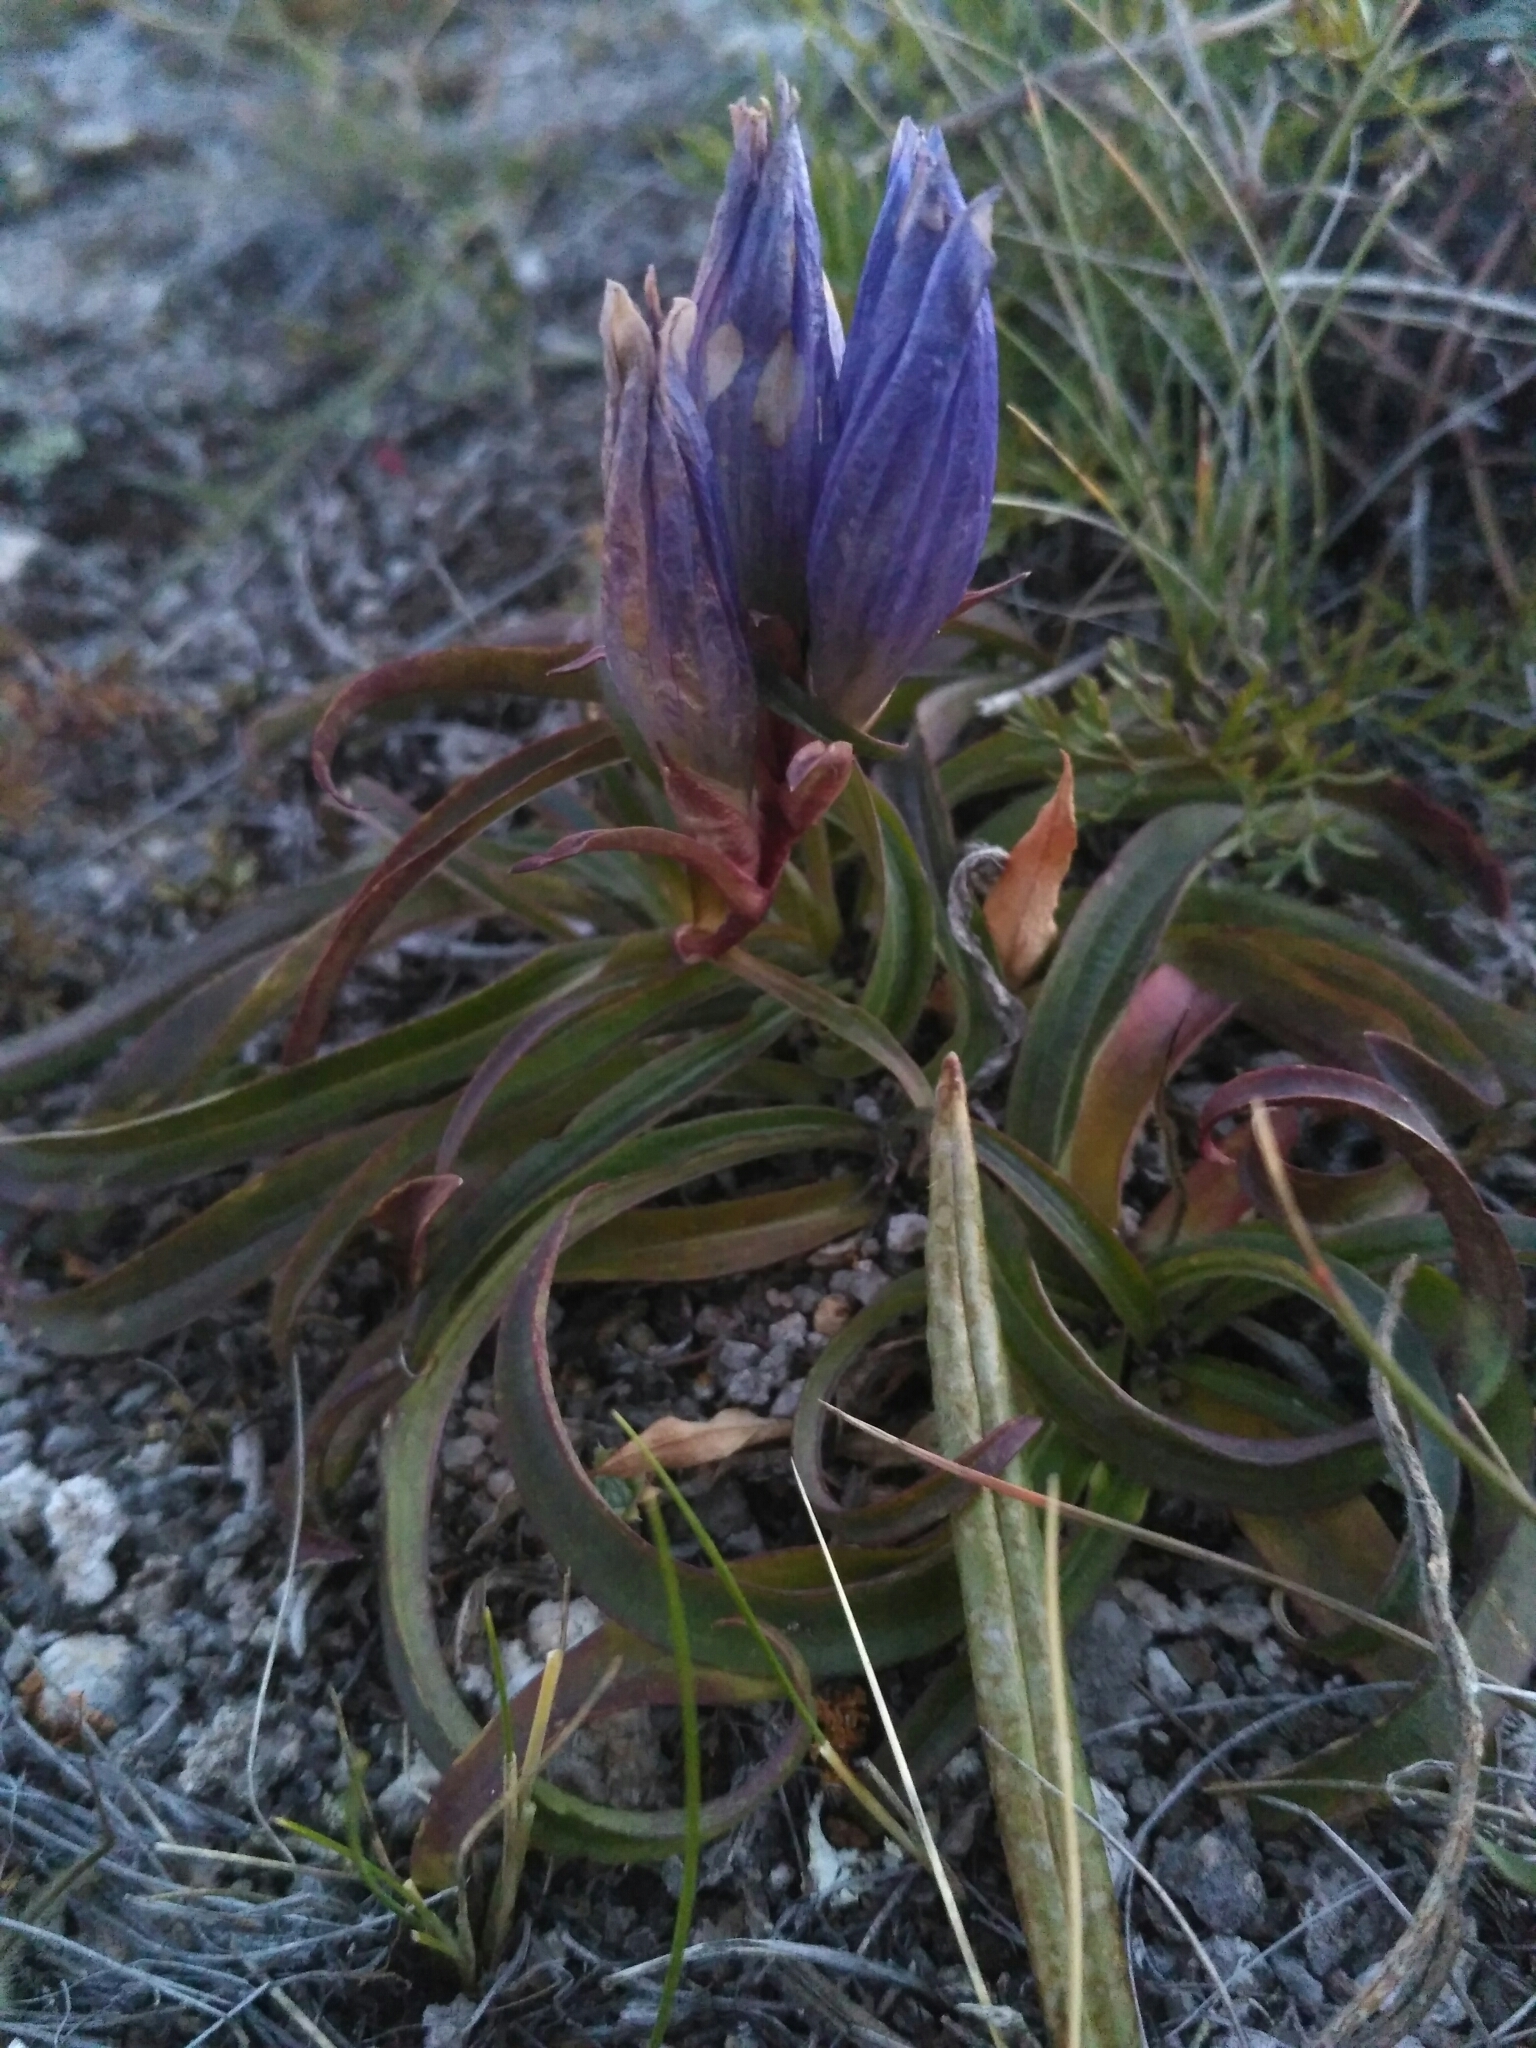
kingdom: Plantae
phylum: Tracheophyta
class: Magnoliopsida
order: Gentianales
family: Gentianaceae
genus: Gentiana
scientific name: Gentiana decumbens
